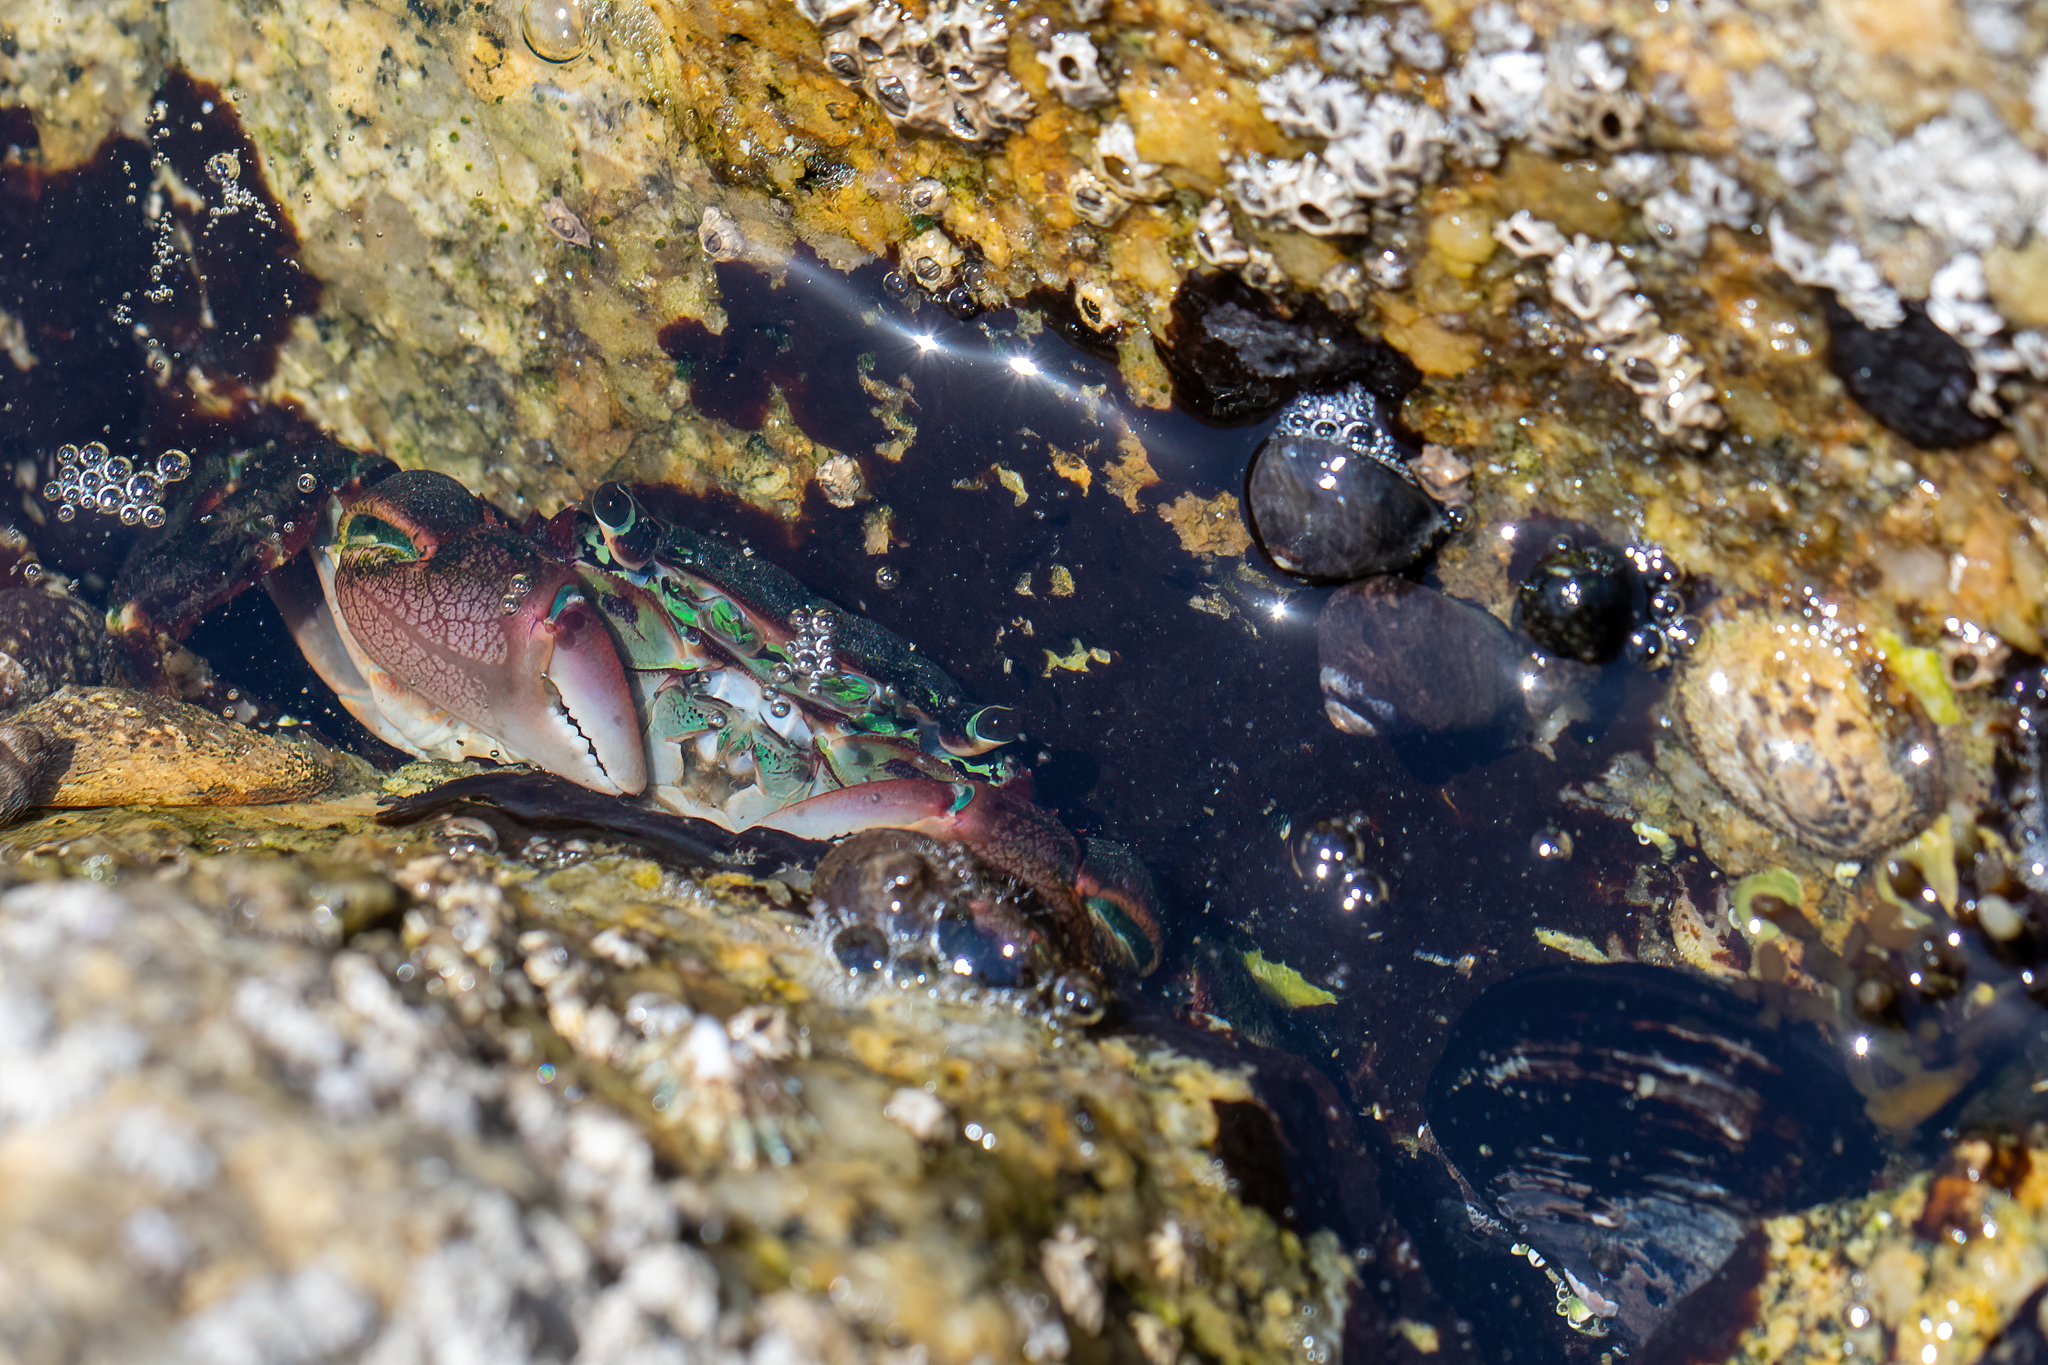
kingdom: Animalia
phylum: Arthropoda
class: Malacostraca
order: Decapoda
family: Grapsidae
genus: Pachygrapsus
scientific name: Pachygrapsus crassipes
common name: Striped shore crab
